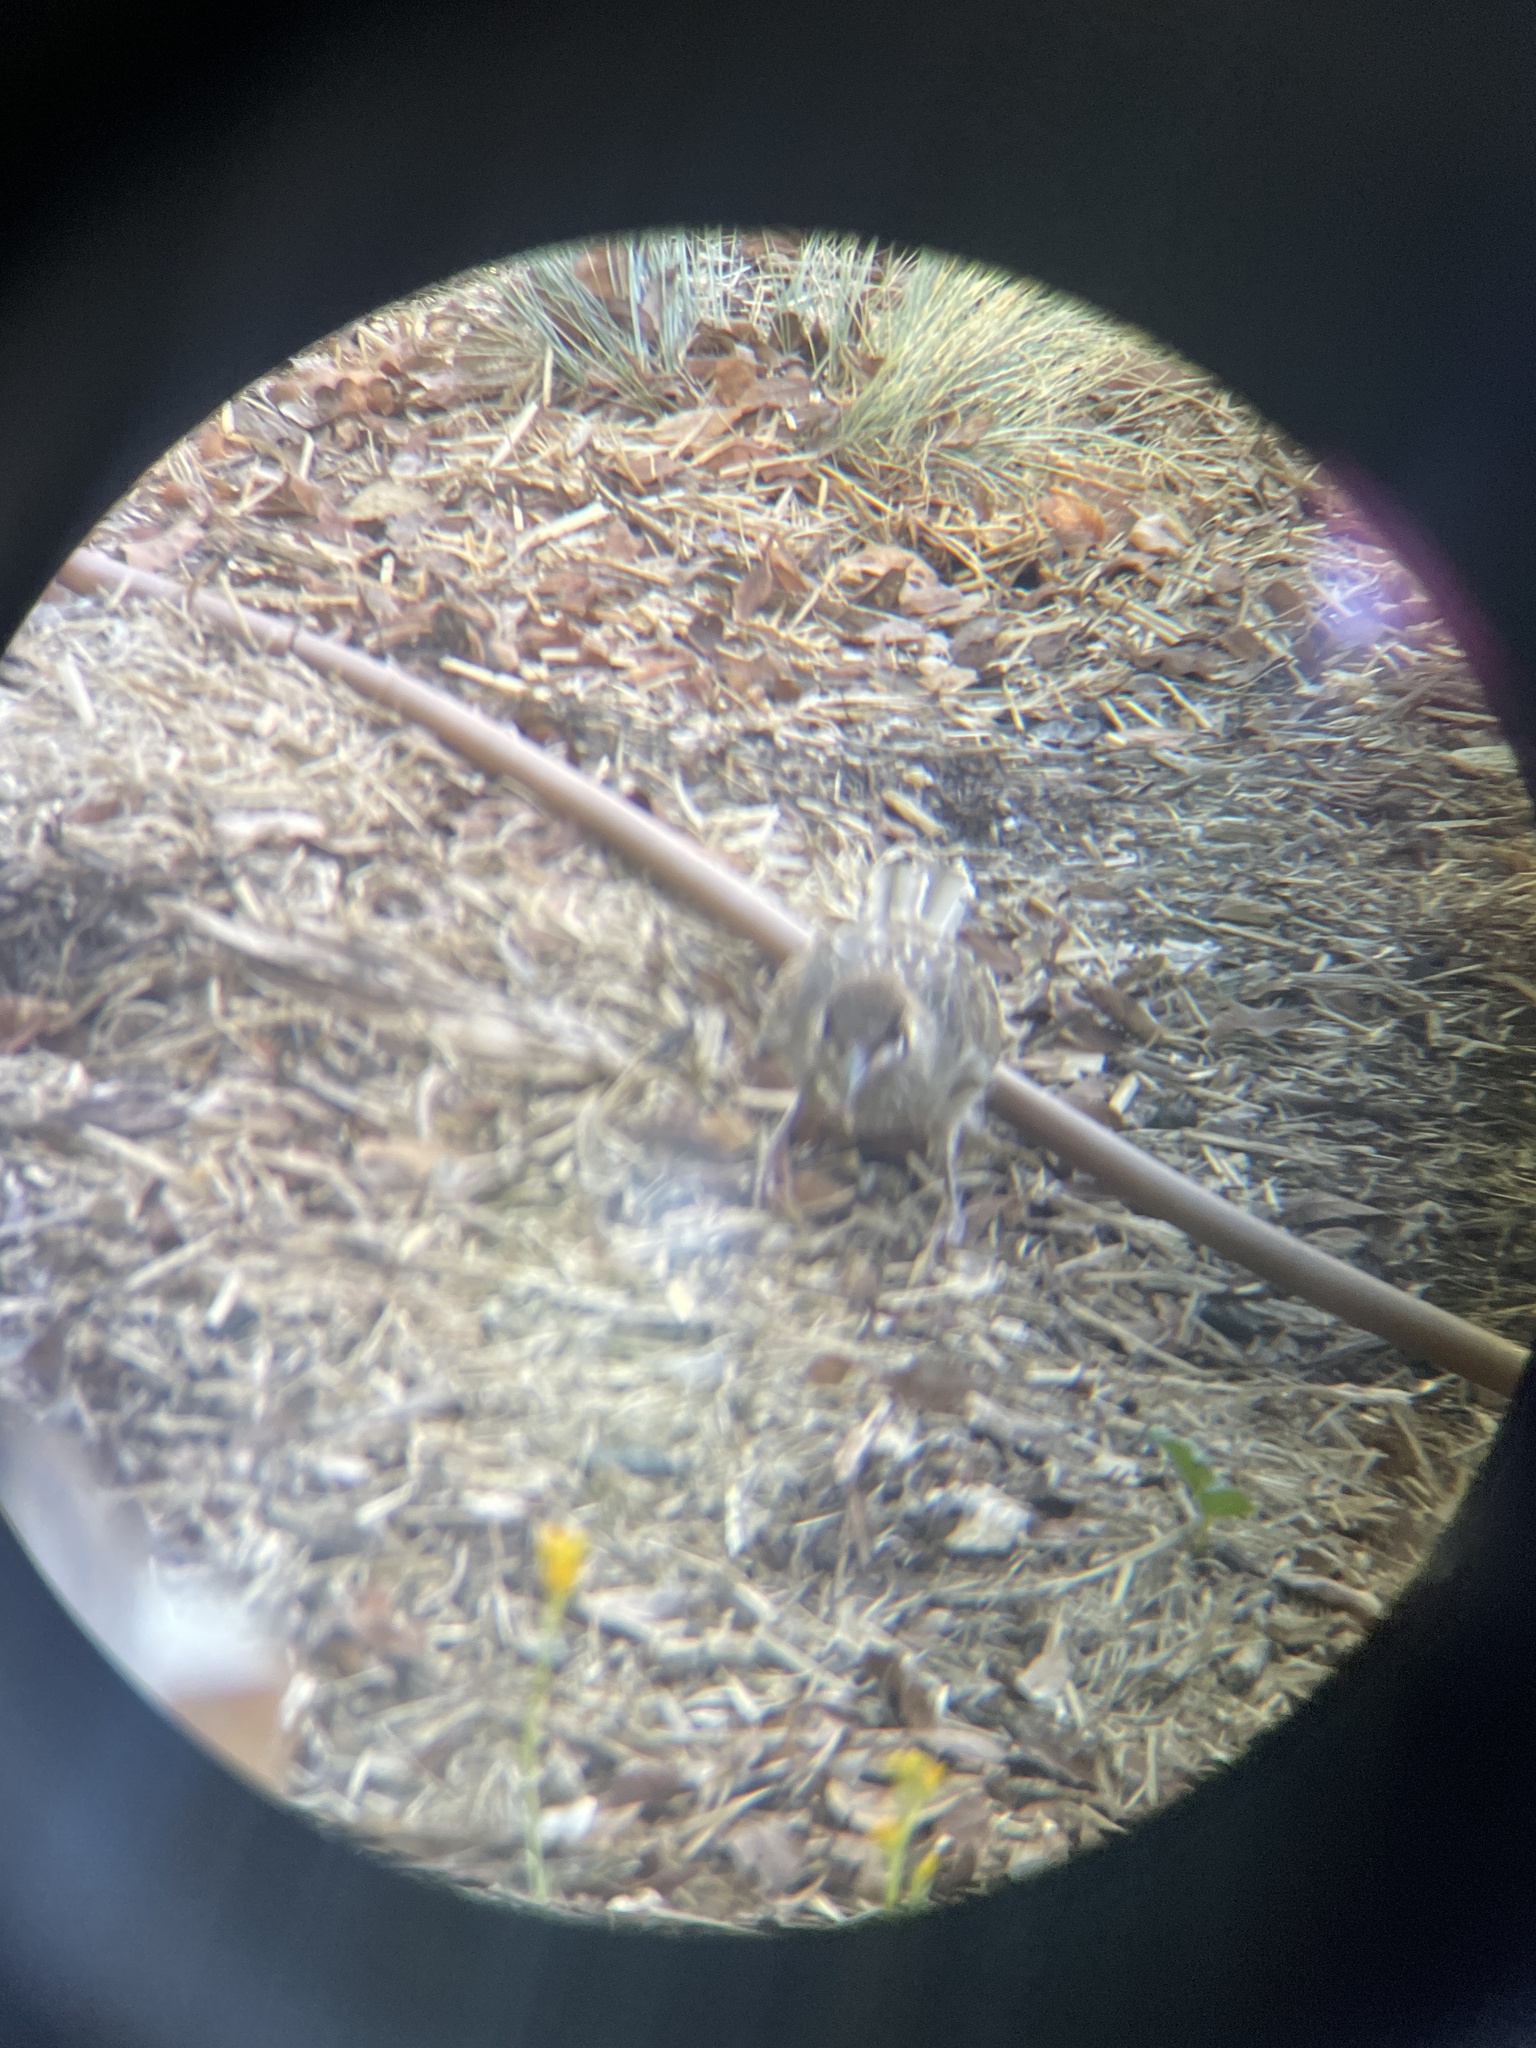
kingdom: Animalia
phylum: Chordata
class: Aves
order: Passeriformes
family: Meliphagidae
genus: Anthochaera
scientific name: Anthochaera carunculata
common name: Red wattlebird
